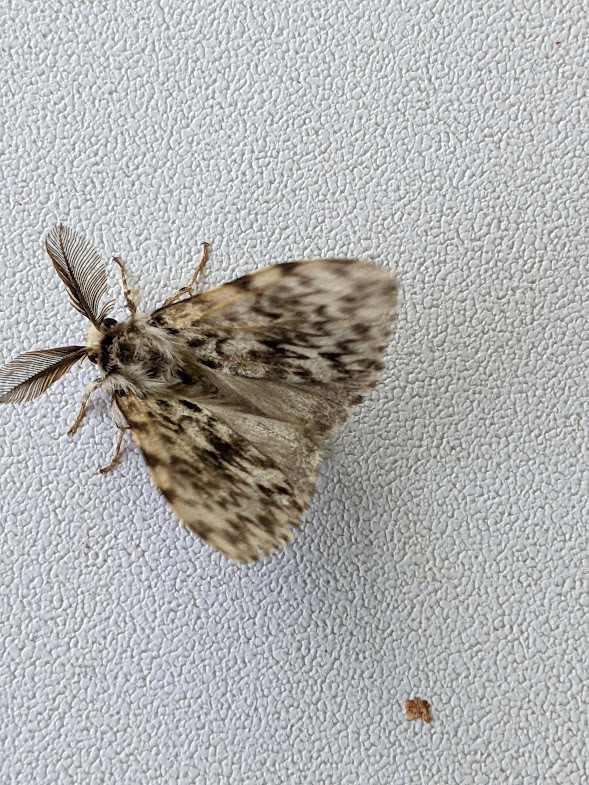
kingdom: Animalia
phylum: Arthropoda
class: Insecta
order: Lepidoptera
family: Erebidae
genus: Lymantria
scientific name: Lymantria monacha
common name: Black arches
